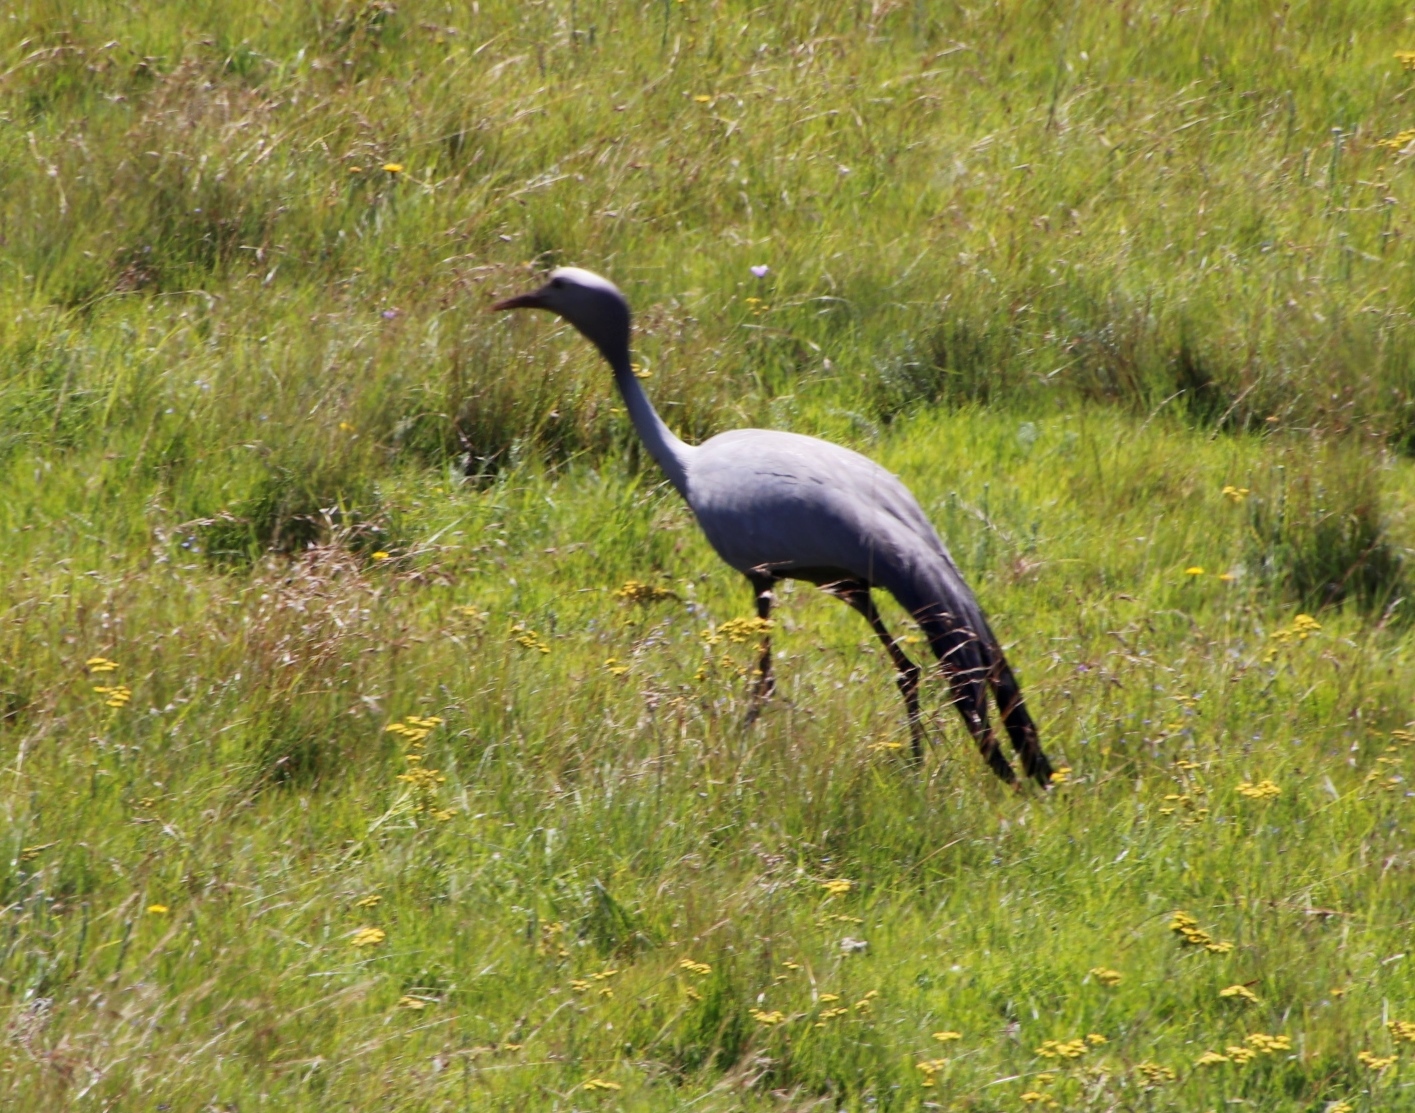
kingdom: Animalia
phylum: Chordata
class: Aves
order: Gruiformes
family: Gruidae
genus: Anthropoides
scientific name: Anthropoides paradiseus
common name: Blue crane
